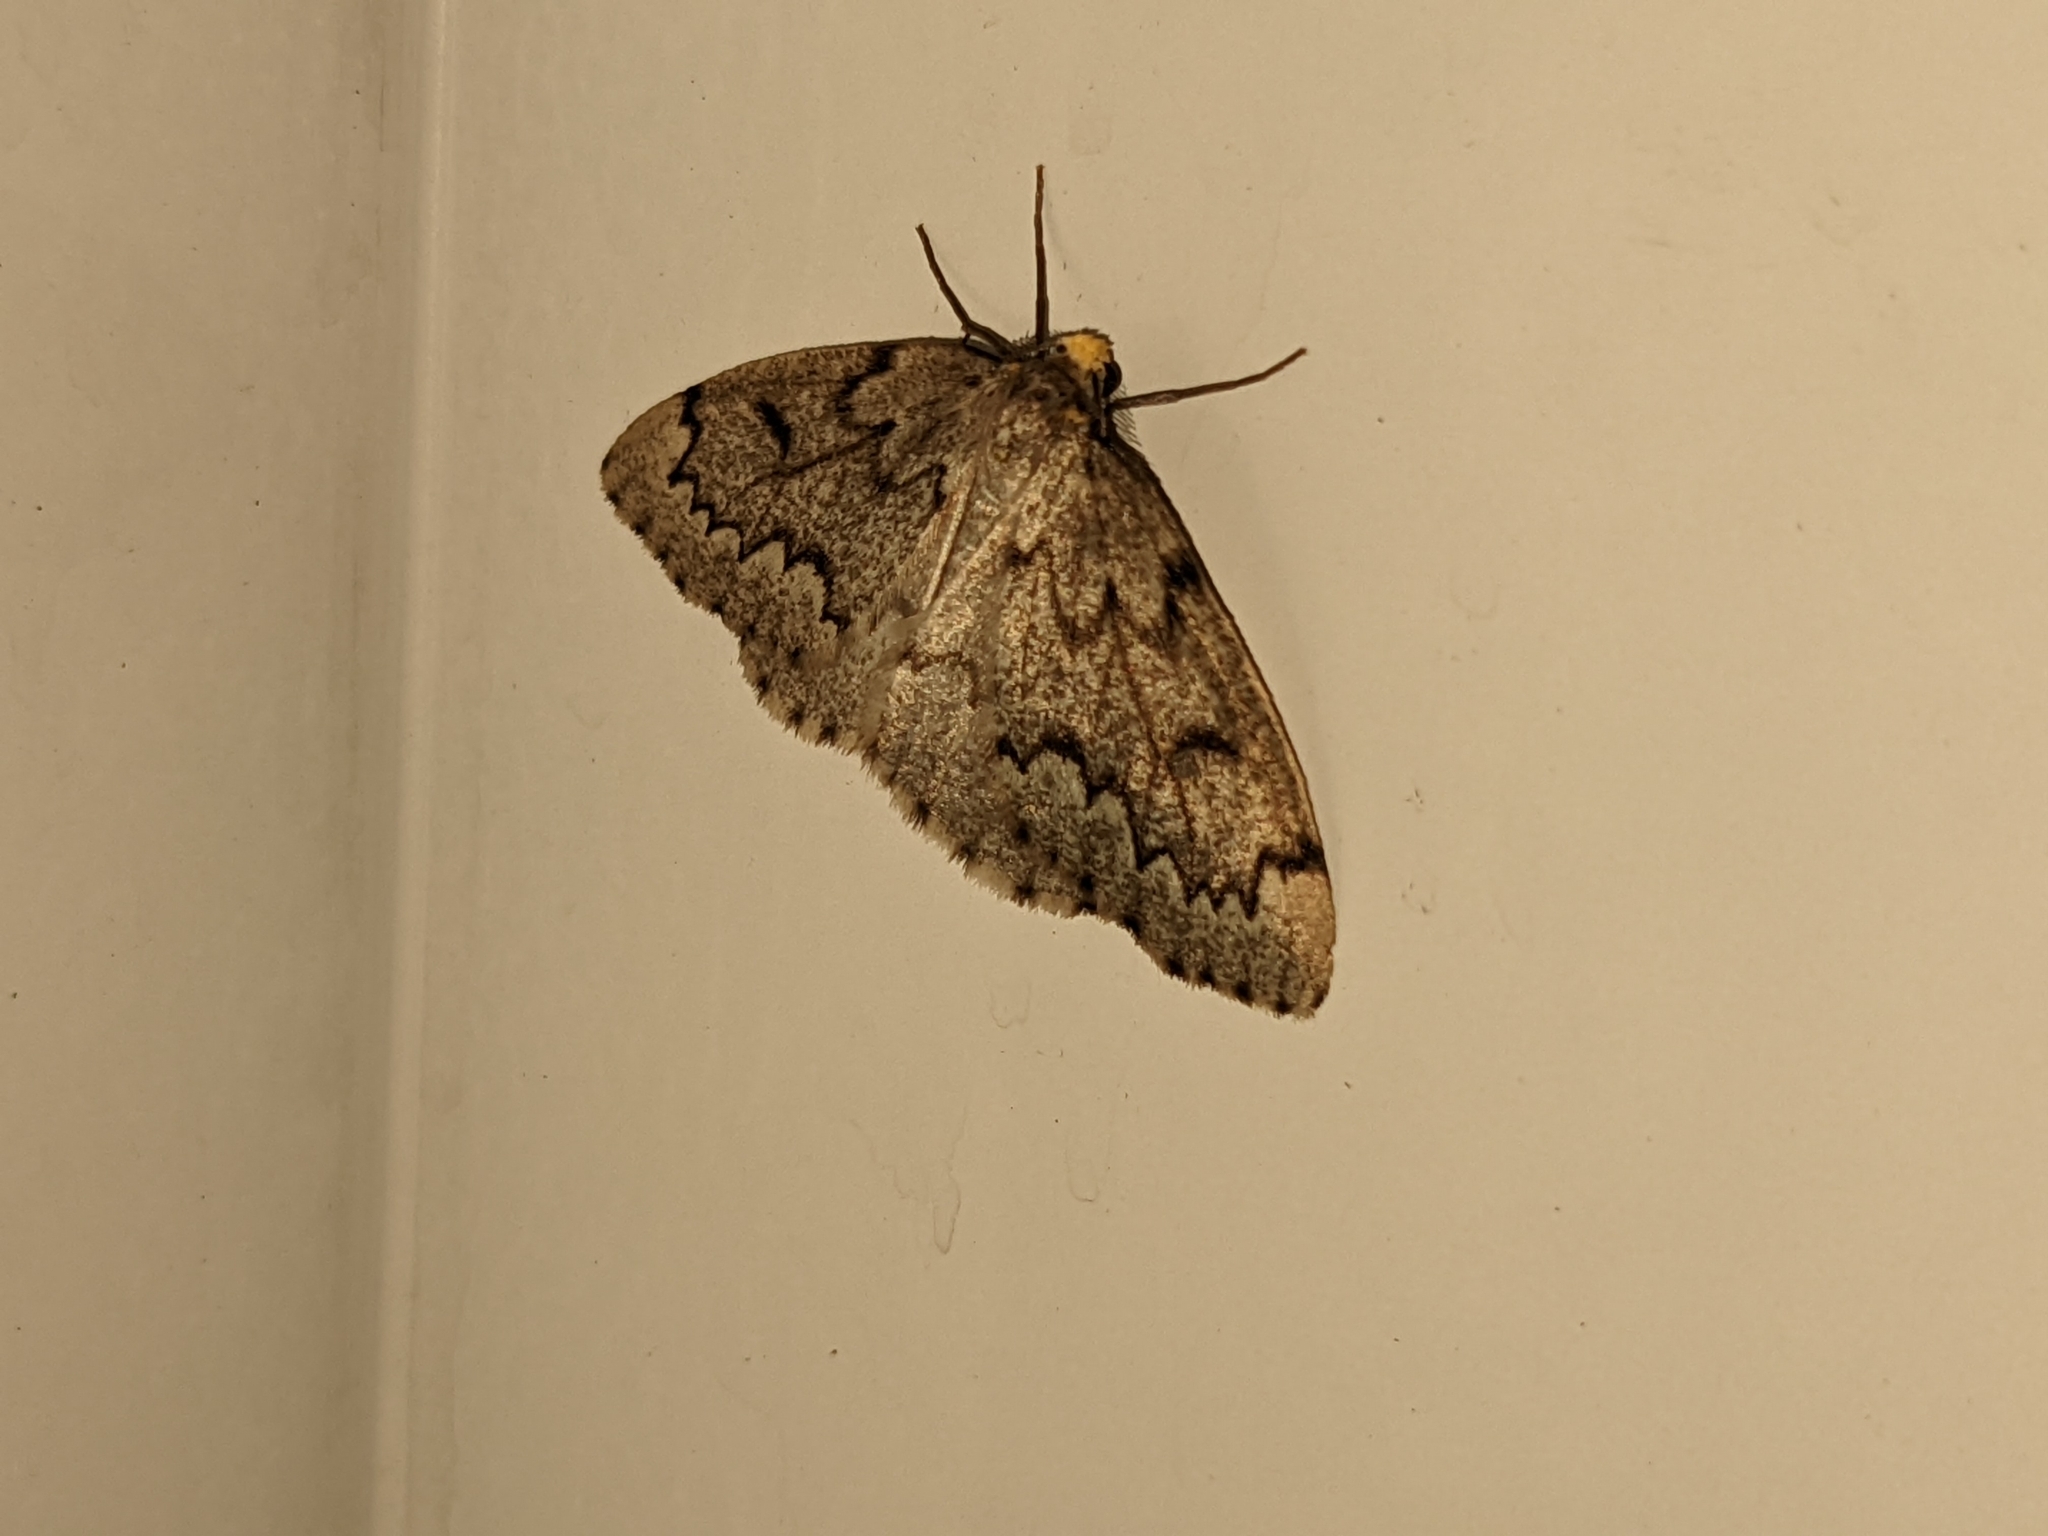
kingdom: Animalia
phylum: Arthropoda
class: Insecta
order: Lepidoptera
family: Geometridae
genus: Nepytia
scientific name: Nepytia canosaria
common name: False hemlock looper
